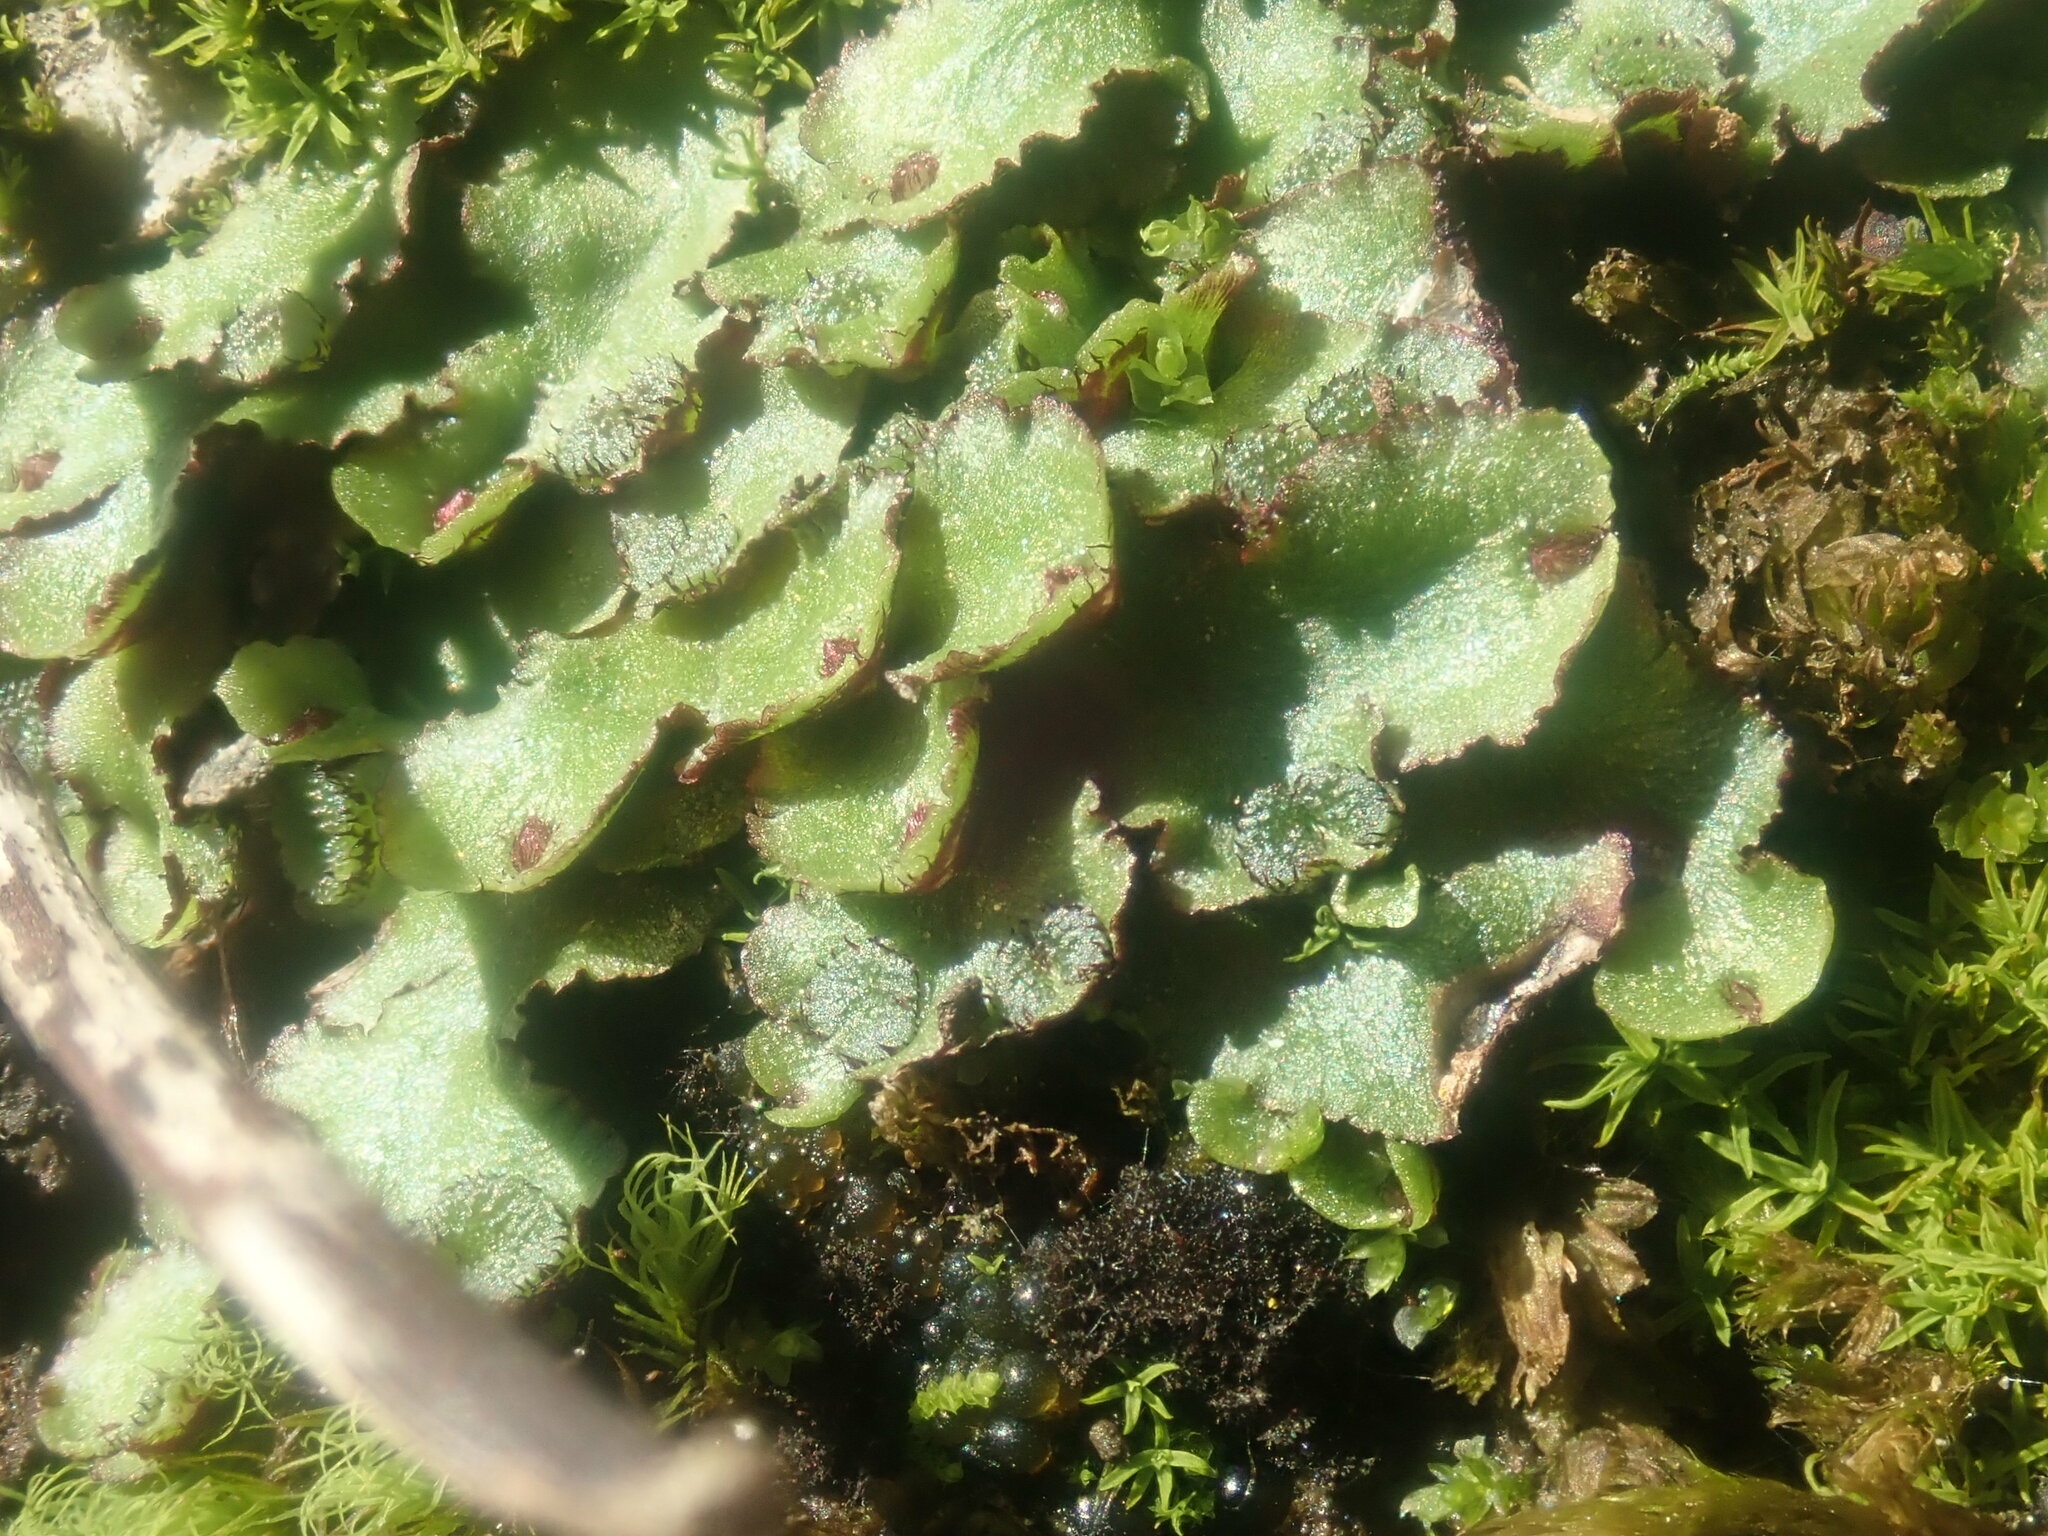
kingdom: Plantae
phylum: Marchantiophyta
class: Marchantiopsida
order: Marchantiales
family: Aytoniaceae
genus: Reboulia
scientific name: Reboulia hemisphaerica
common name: Purple-margined liverwort
